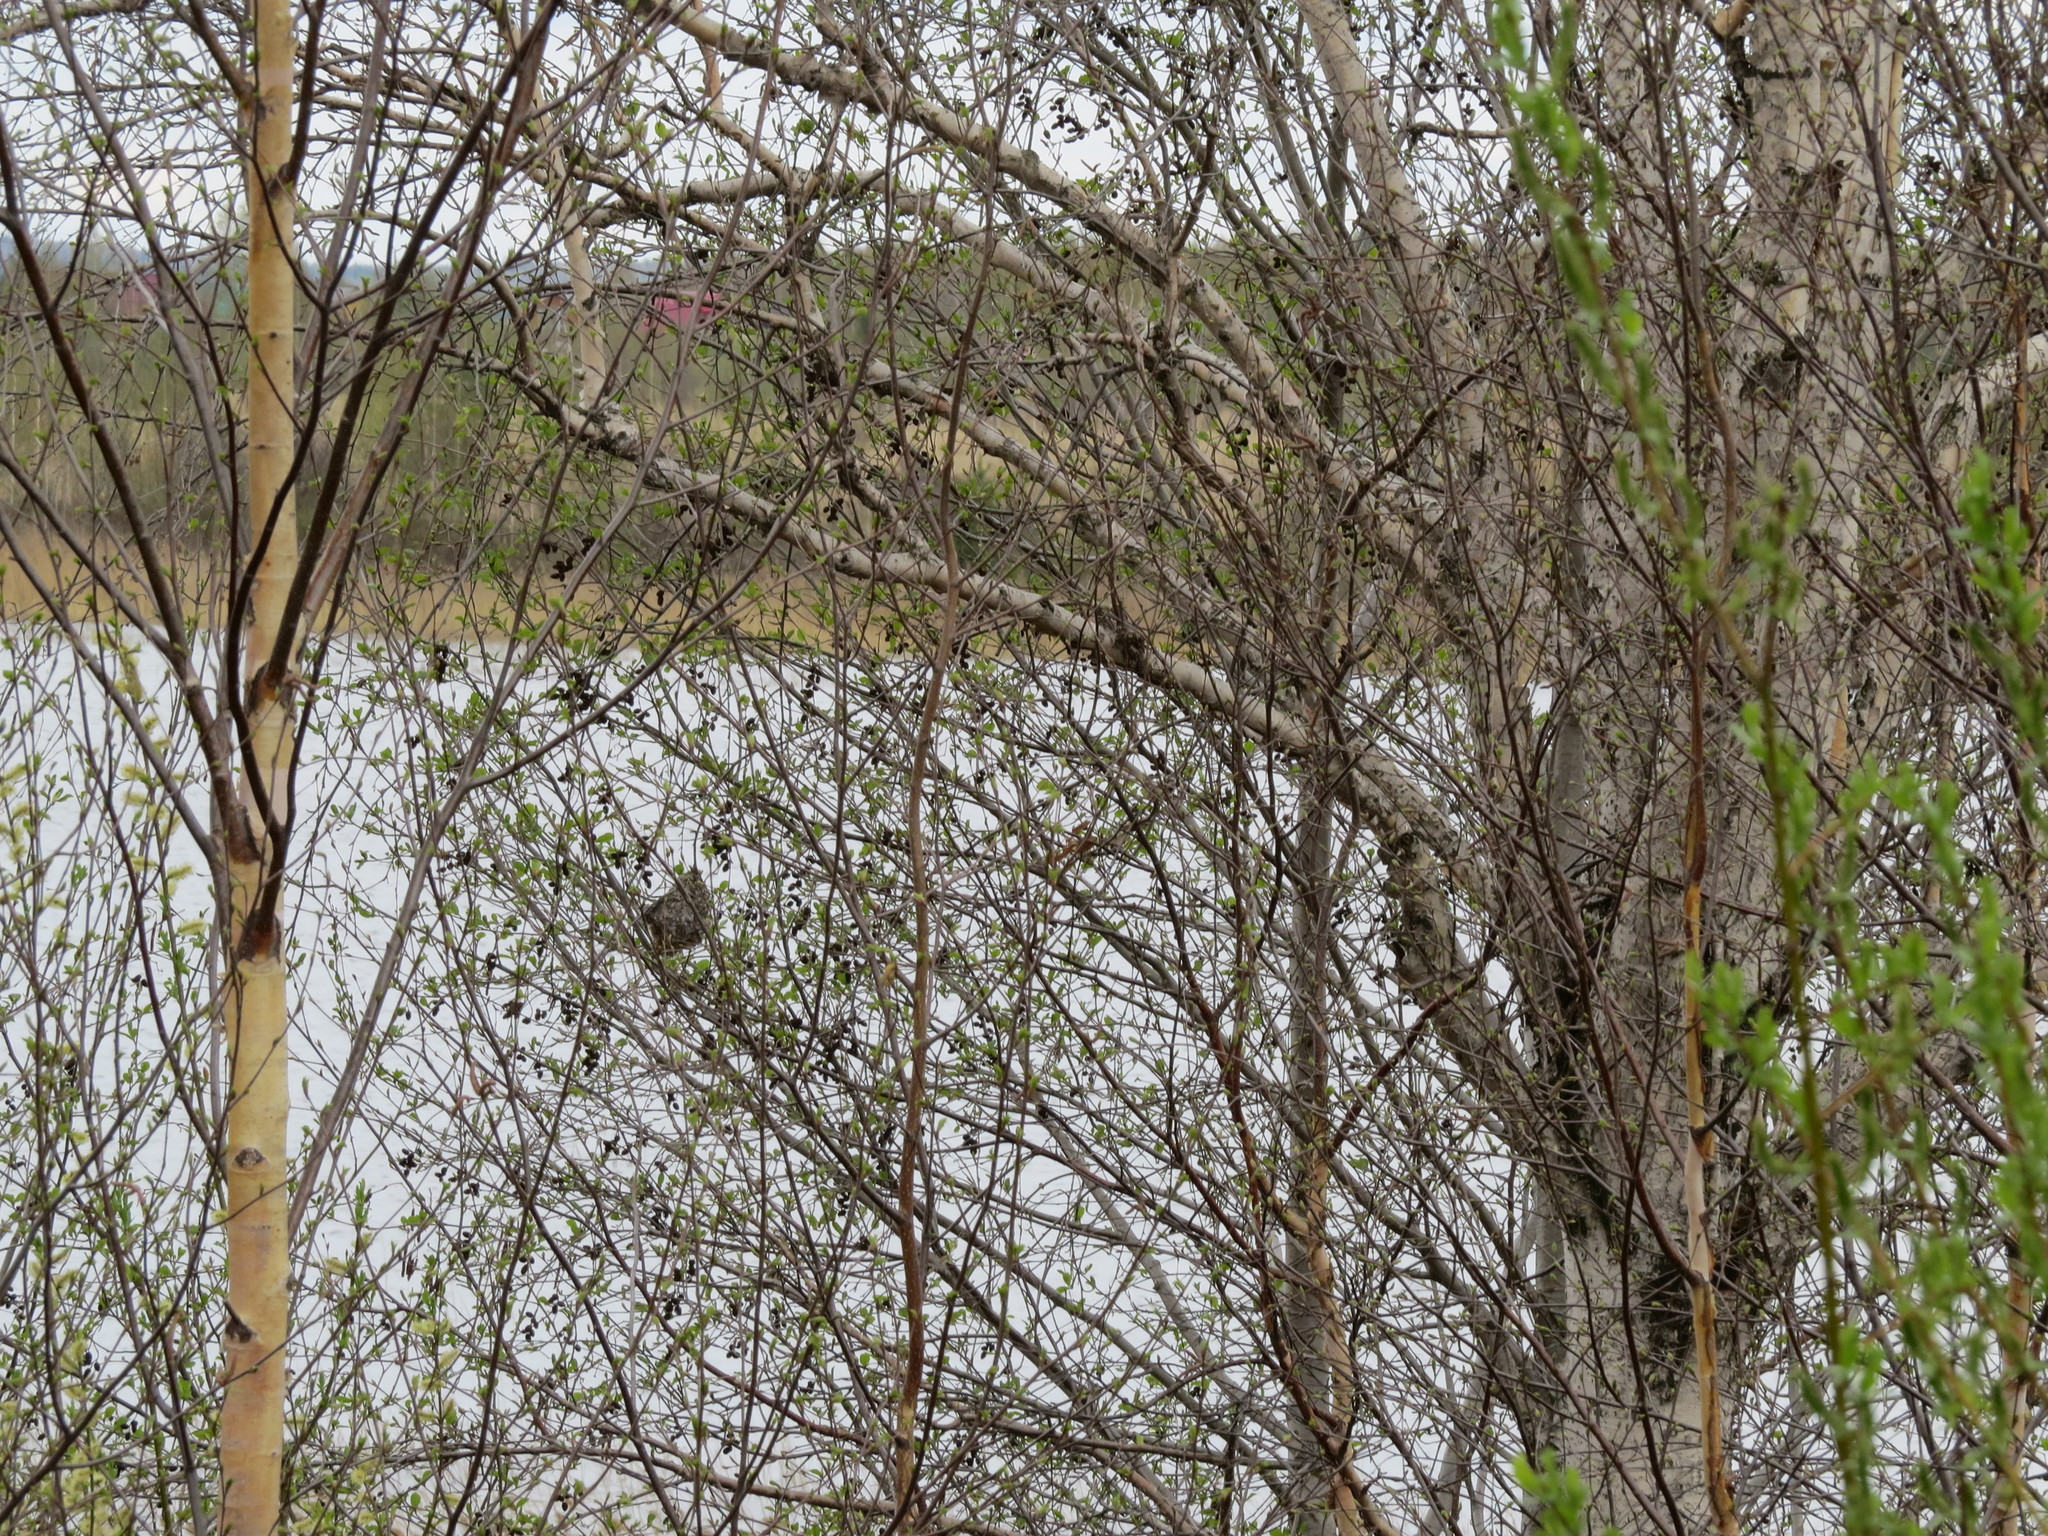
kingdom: Animalia
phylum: Chordata
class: Aves
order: Passeriformes
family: Remizidae
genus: Remiz
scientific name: Remiz pendulinus
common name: Eurasian penduline tit
